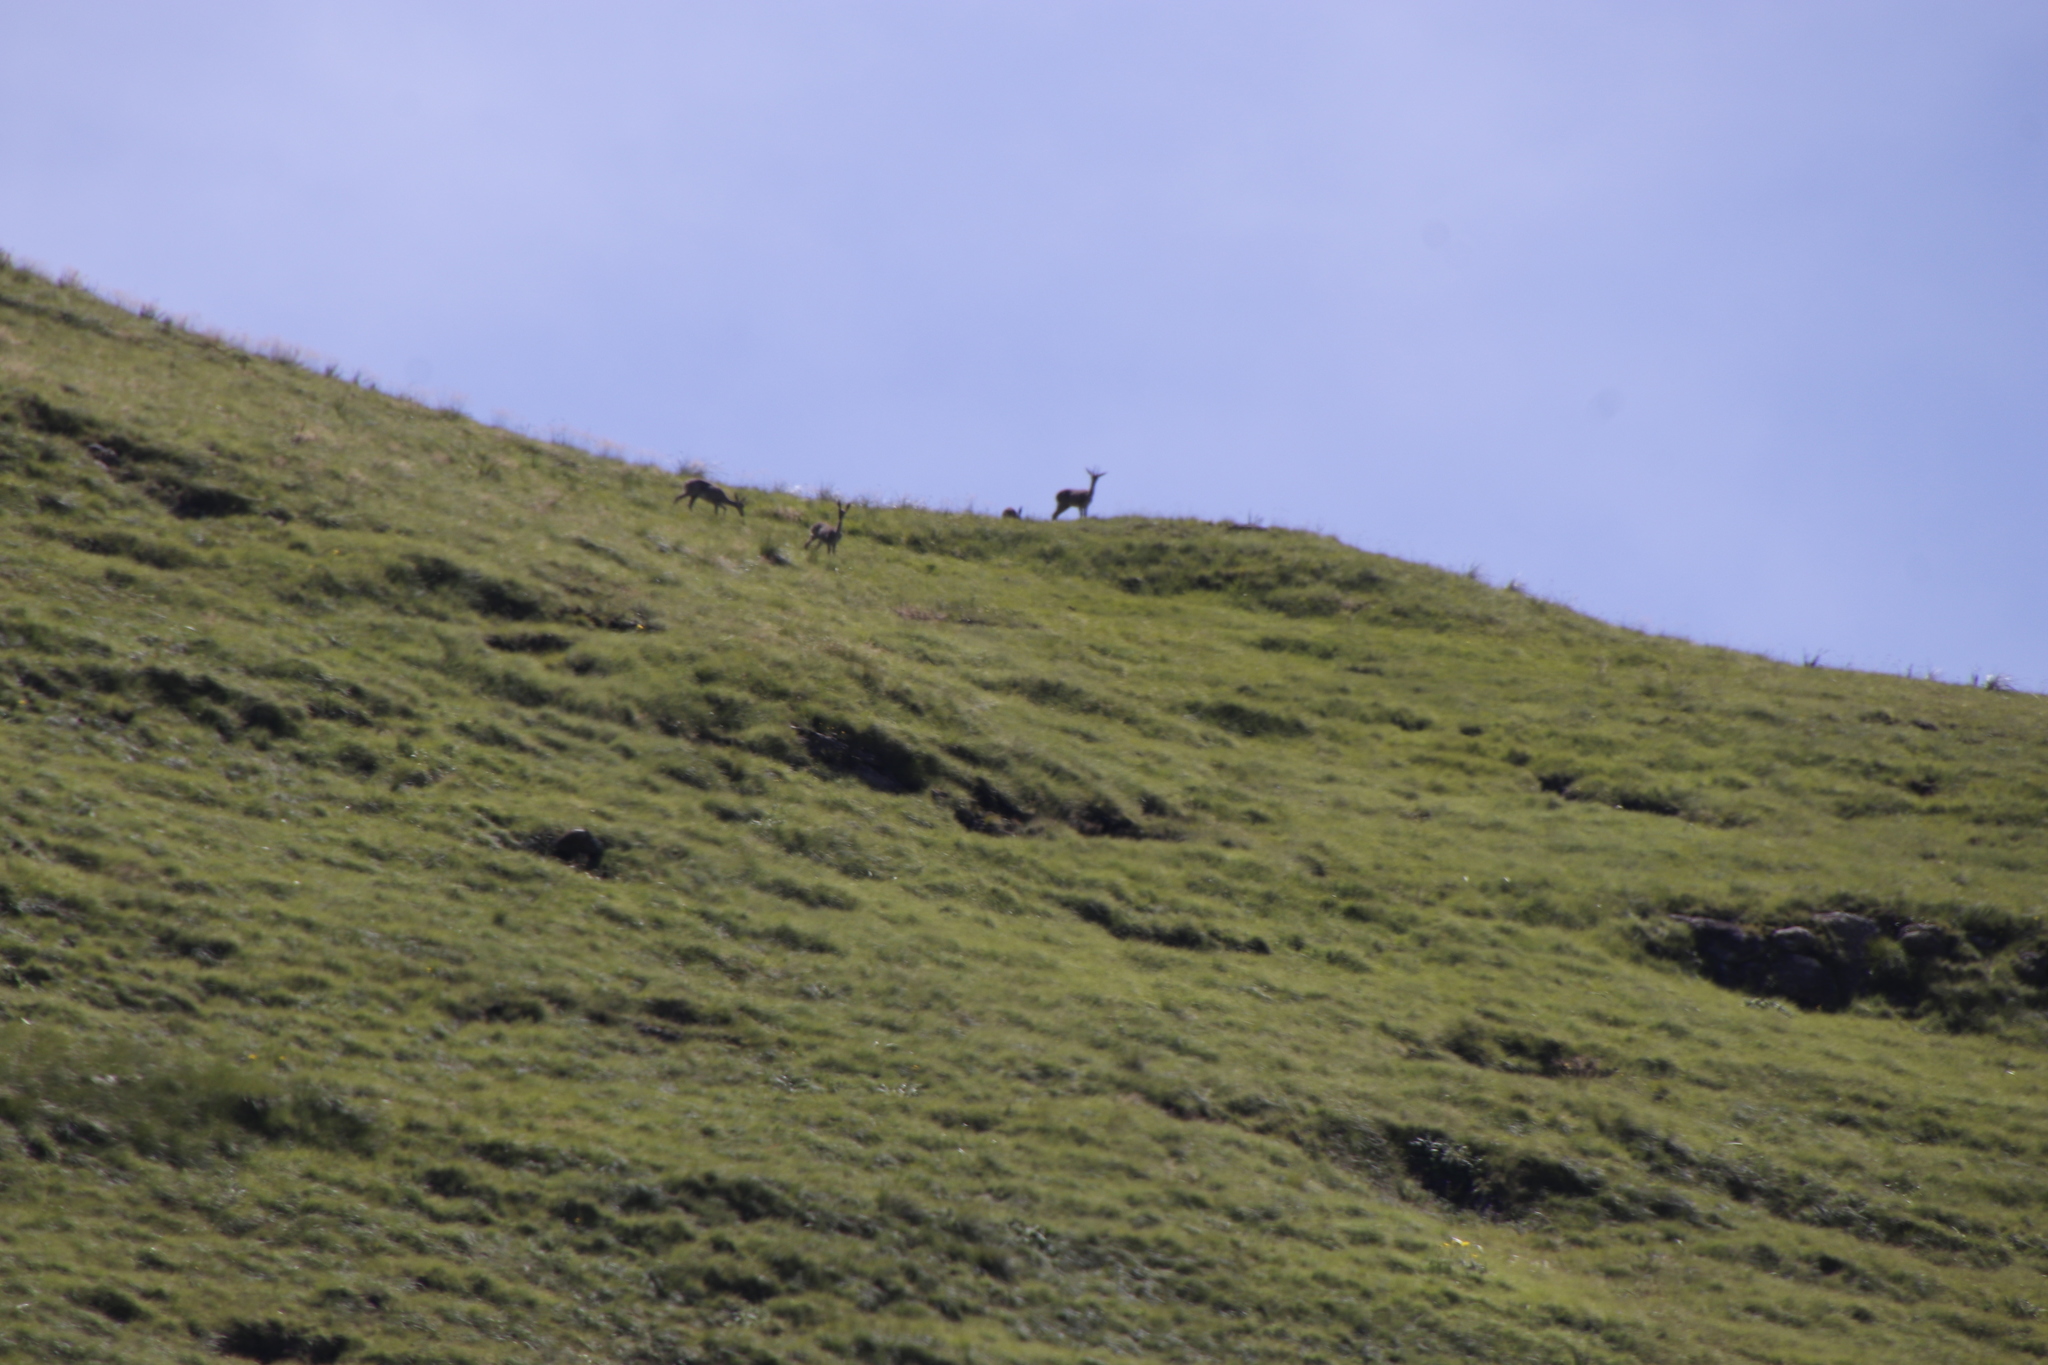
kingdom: Animalia
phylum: Chordata
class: Mammalia
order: Artiodactyla
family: Bovidae
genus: Pelea
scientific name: Pelea capreolus
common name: Common rhebok
